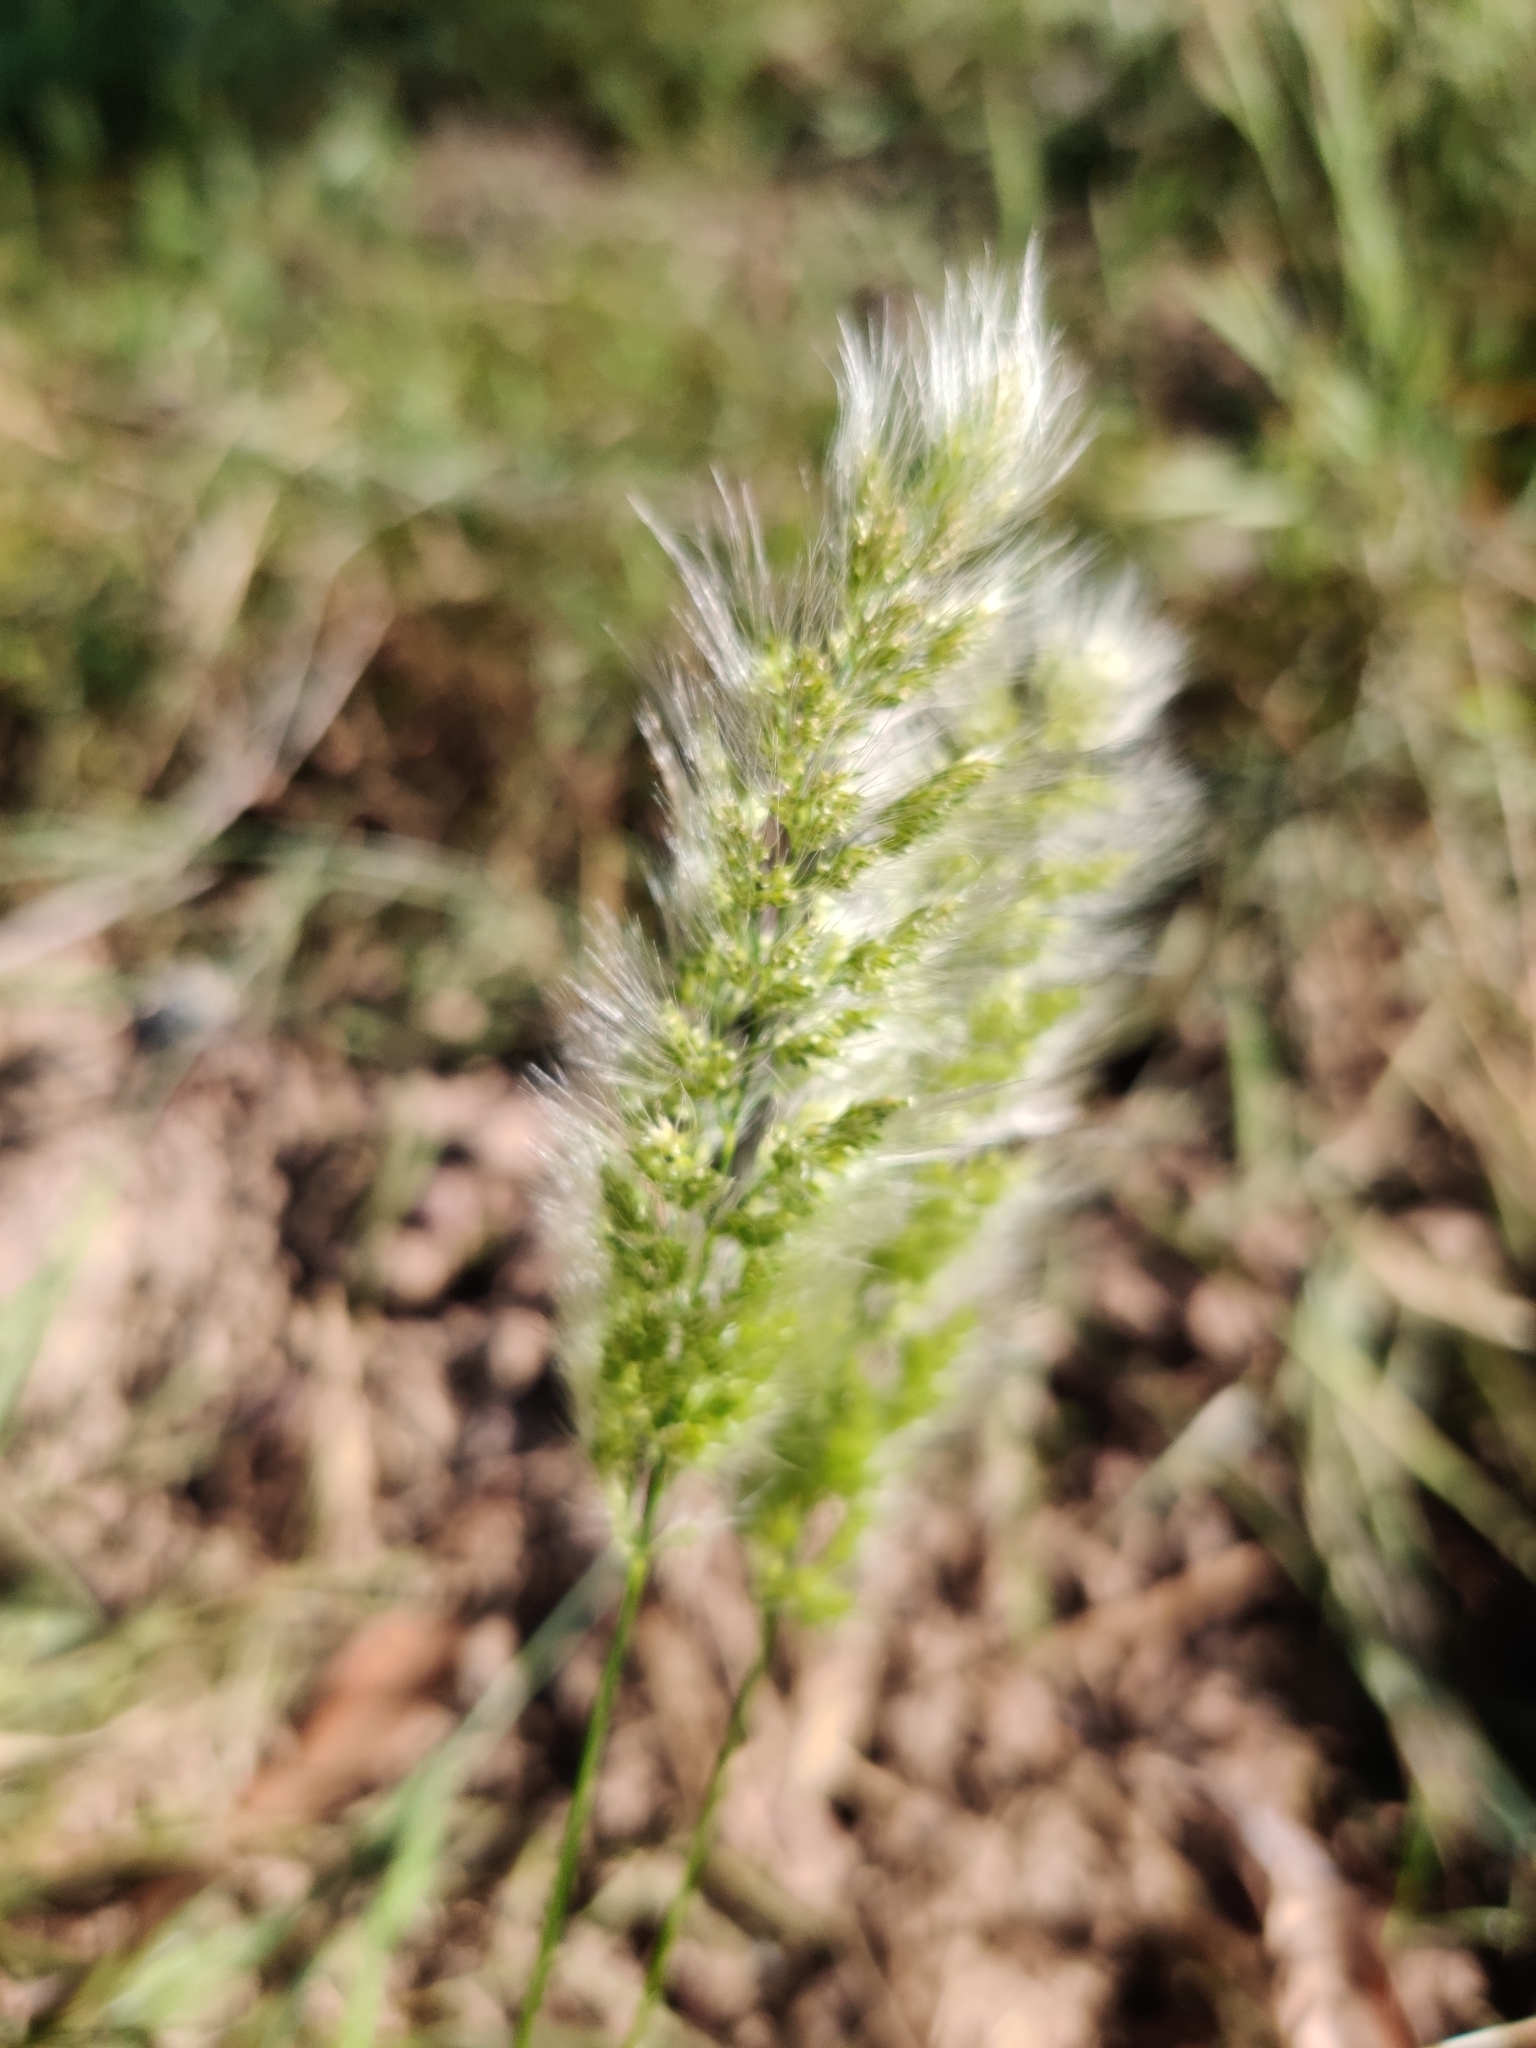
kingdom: Plantae
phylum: Tracheophyta
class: Liliopsida
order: Poales
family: Poaceae
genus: Polypogon
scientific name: Polypogon monspeliensis
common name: Annual rabbitsfoot grass
